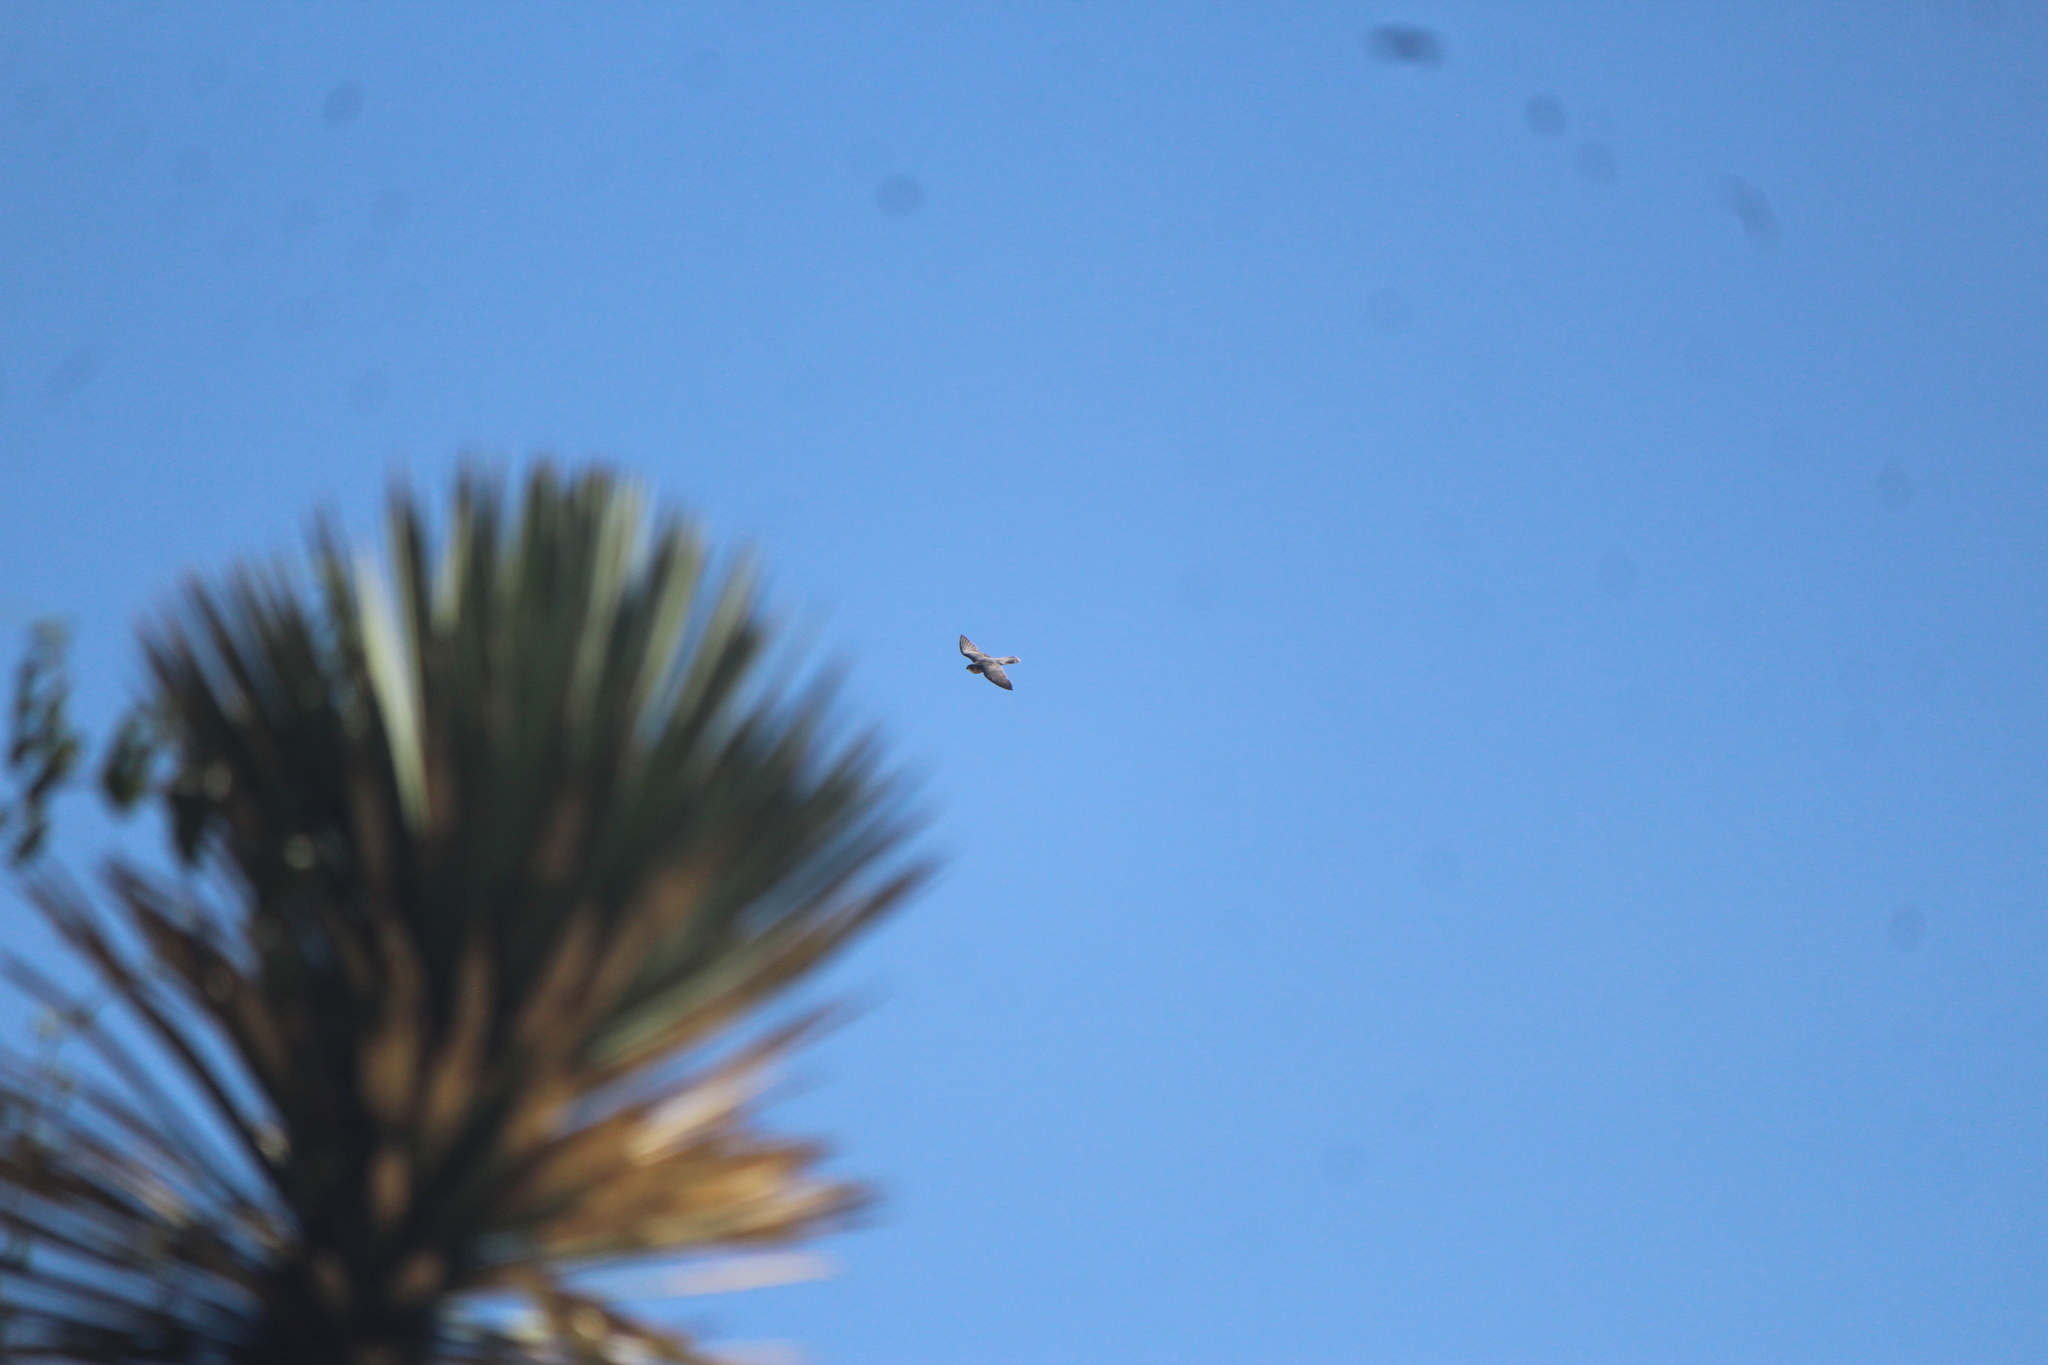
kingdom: Animalia
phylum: Chordata
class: Aves
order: Falconiformes
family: Falconidae
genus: Falco
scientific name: Falco peregrinus
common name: Peregrine falcon
